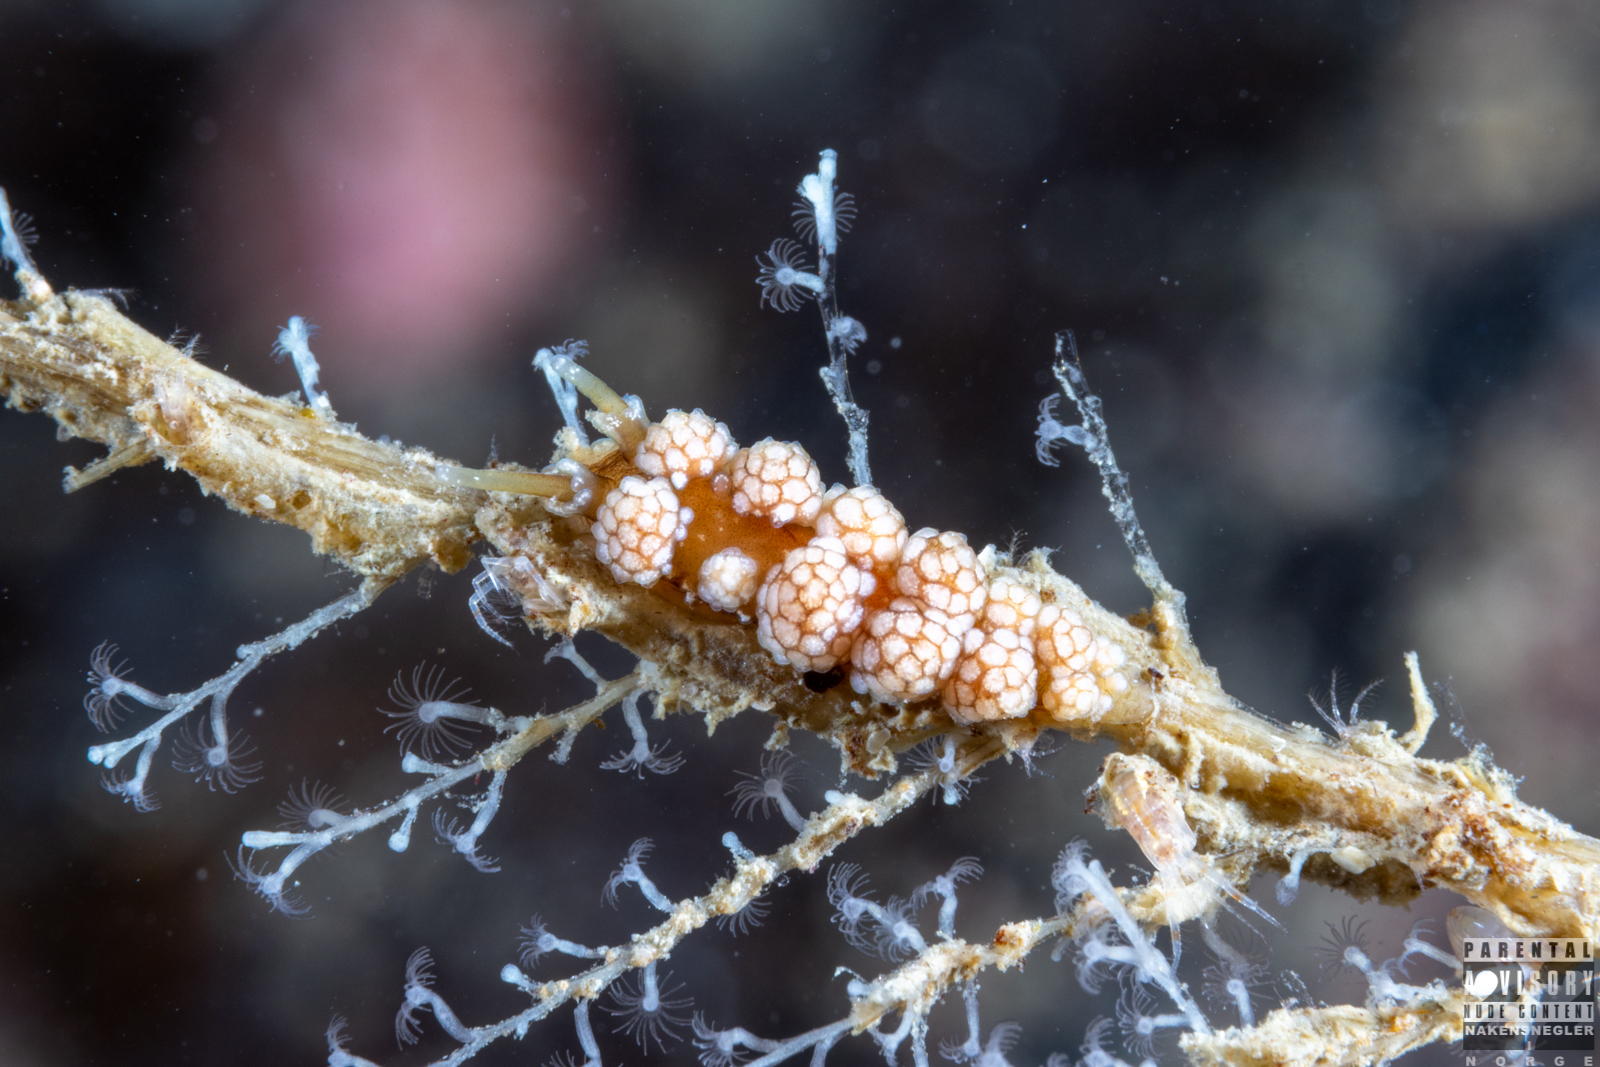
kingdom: Animalia
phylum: Mollusca
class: Gastropoda
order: Nudibranchia
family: Dotidae
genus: Doto
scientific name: Doto fragilis
